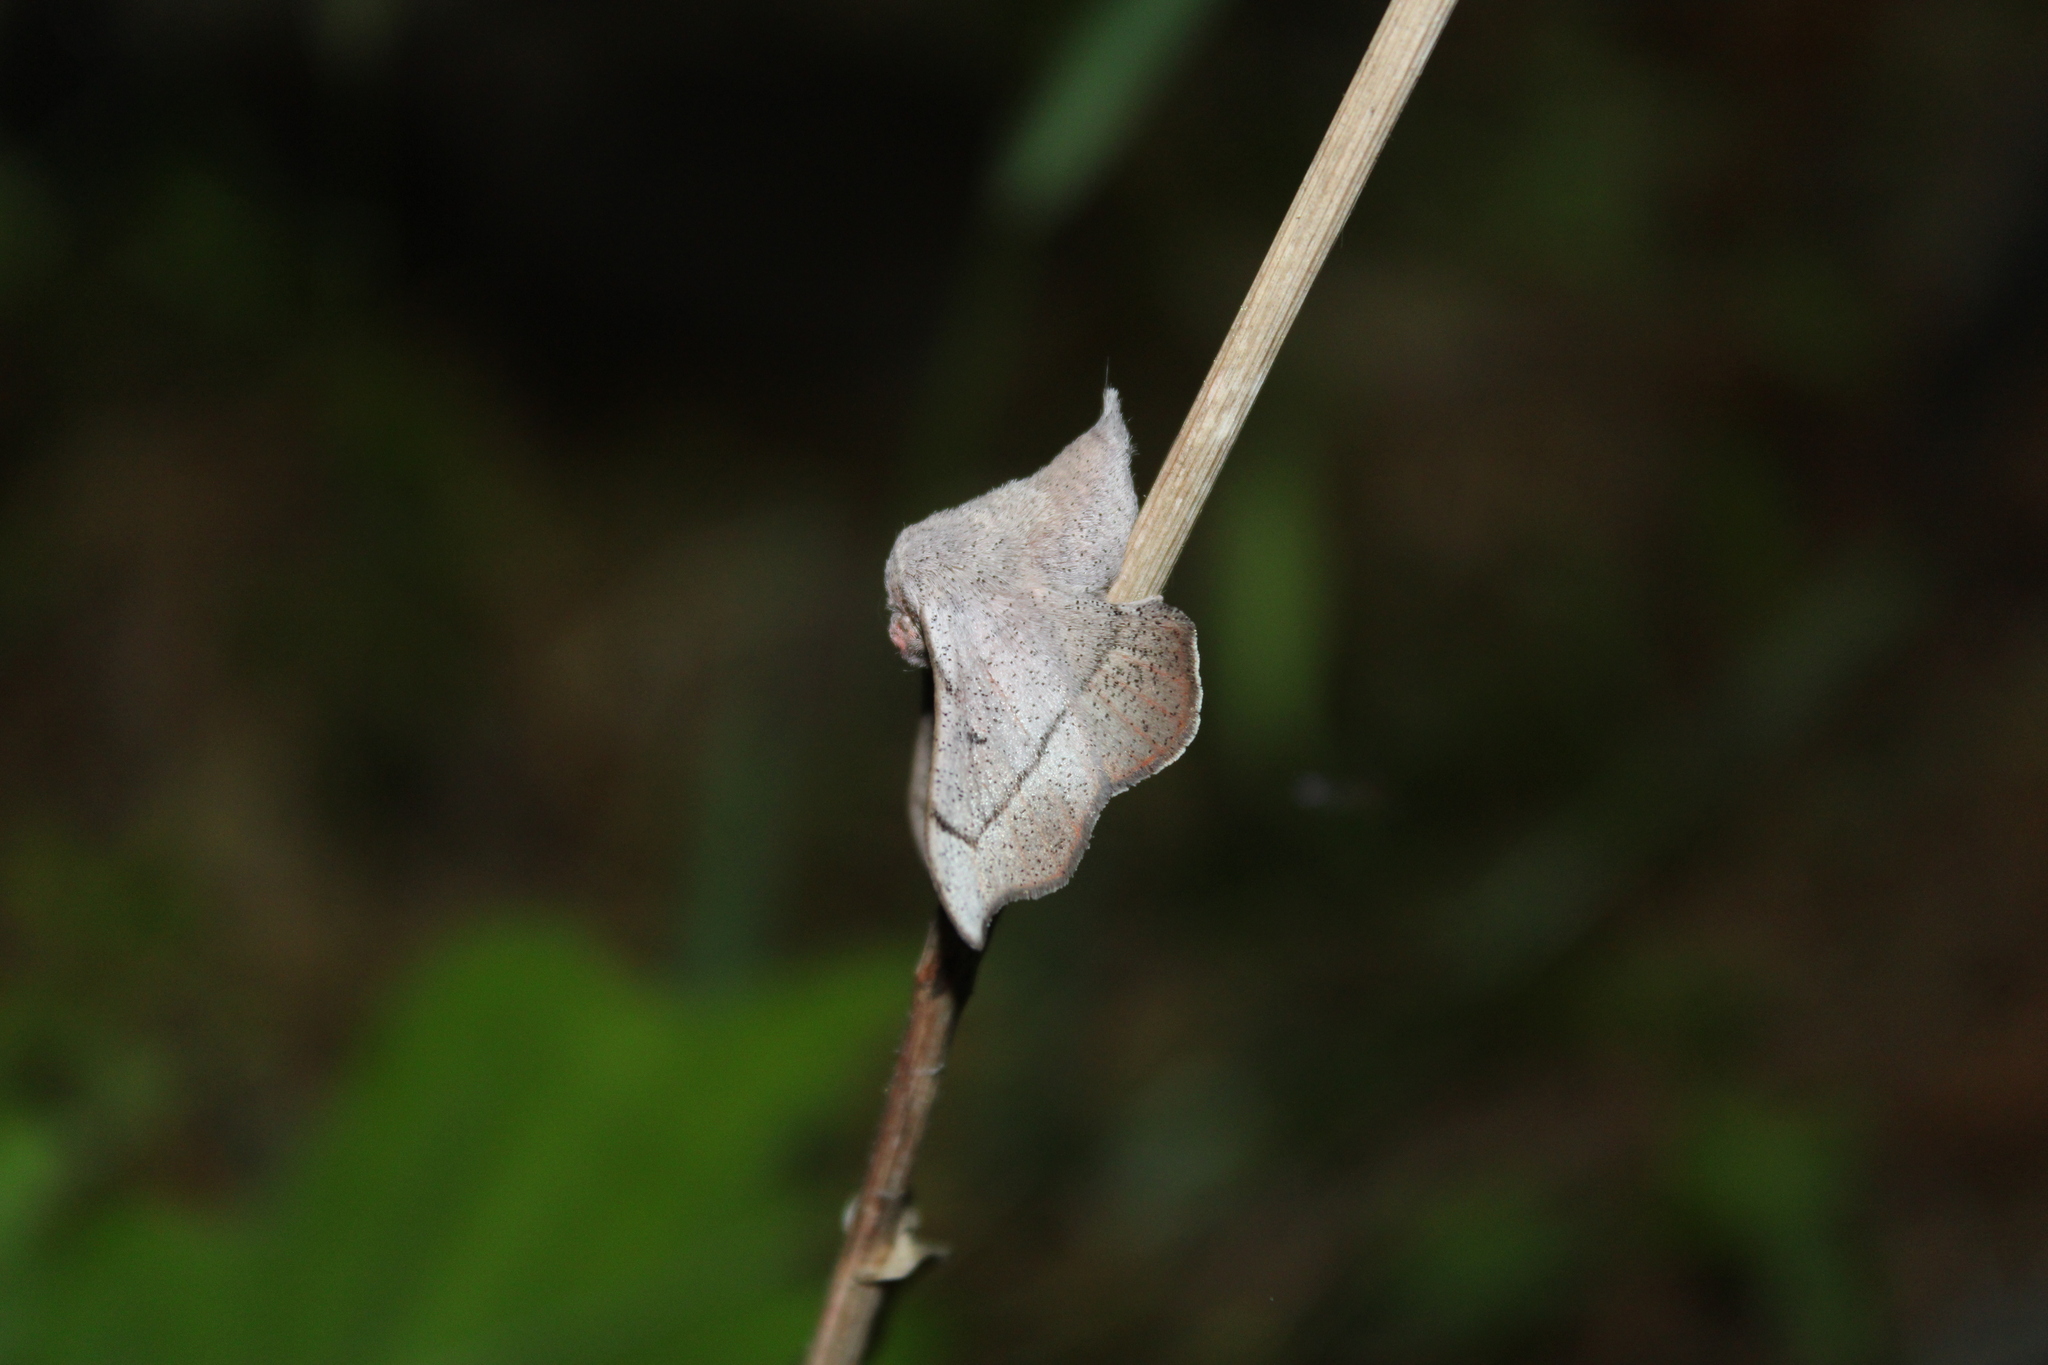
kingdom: Animalia
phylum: Arthropoda
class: Insecta
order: Lepidoptera
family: Mimallonidae
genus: Cicinnus
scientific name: Cicinnus melsheimeri
